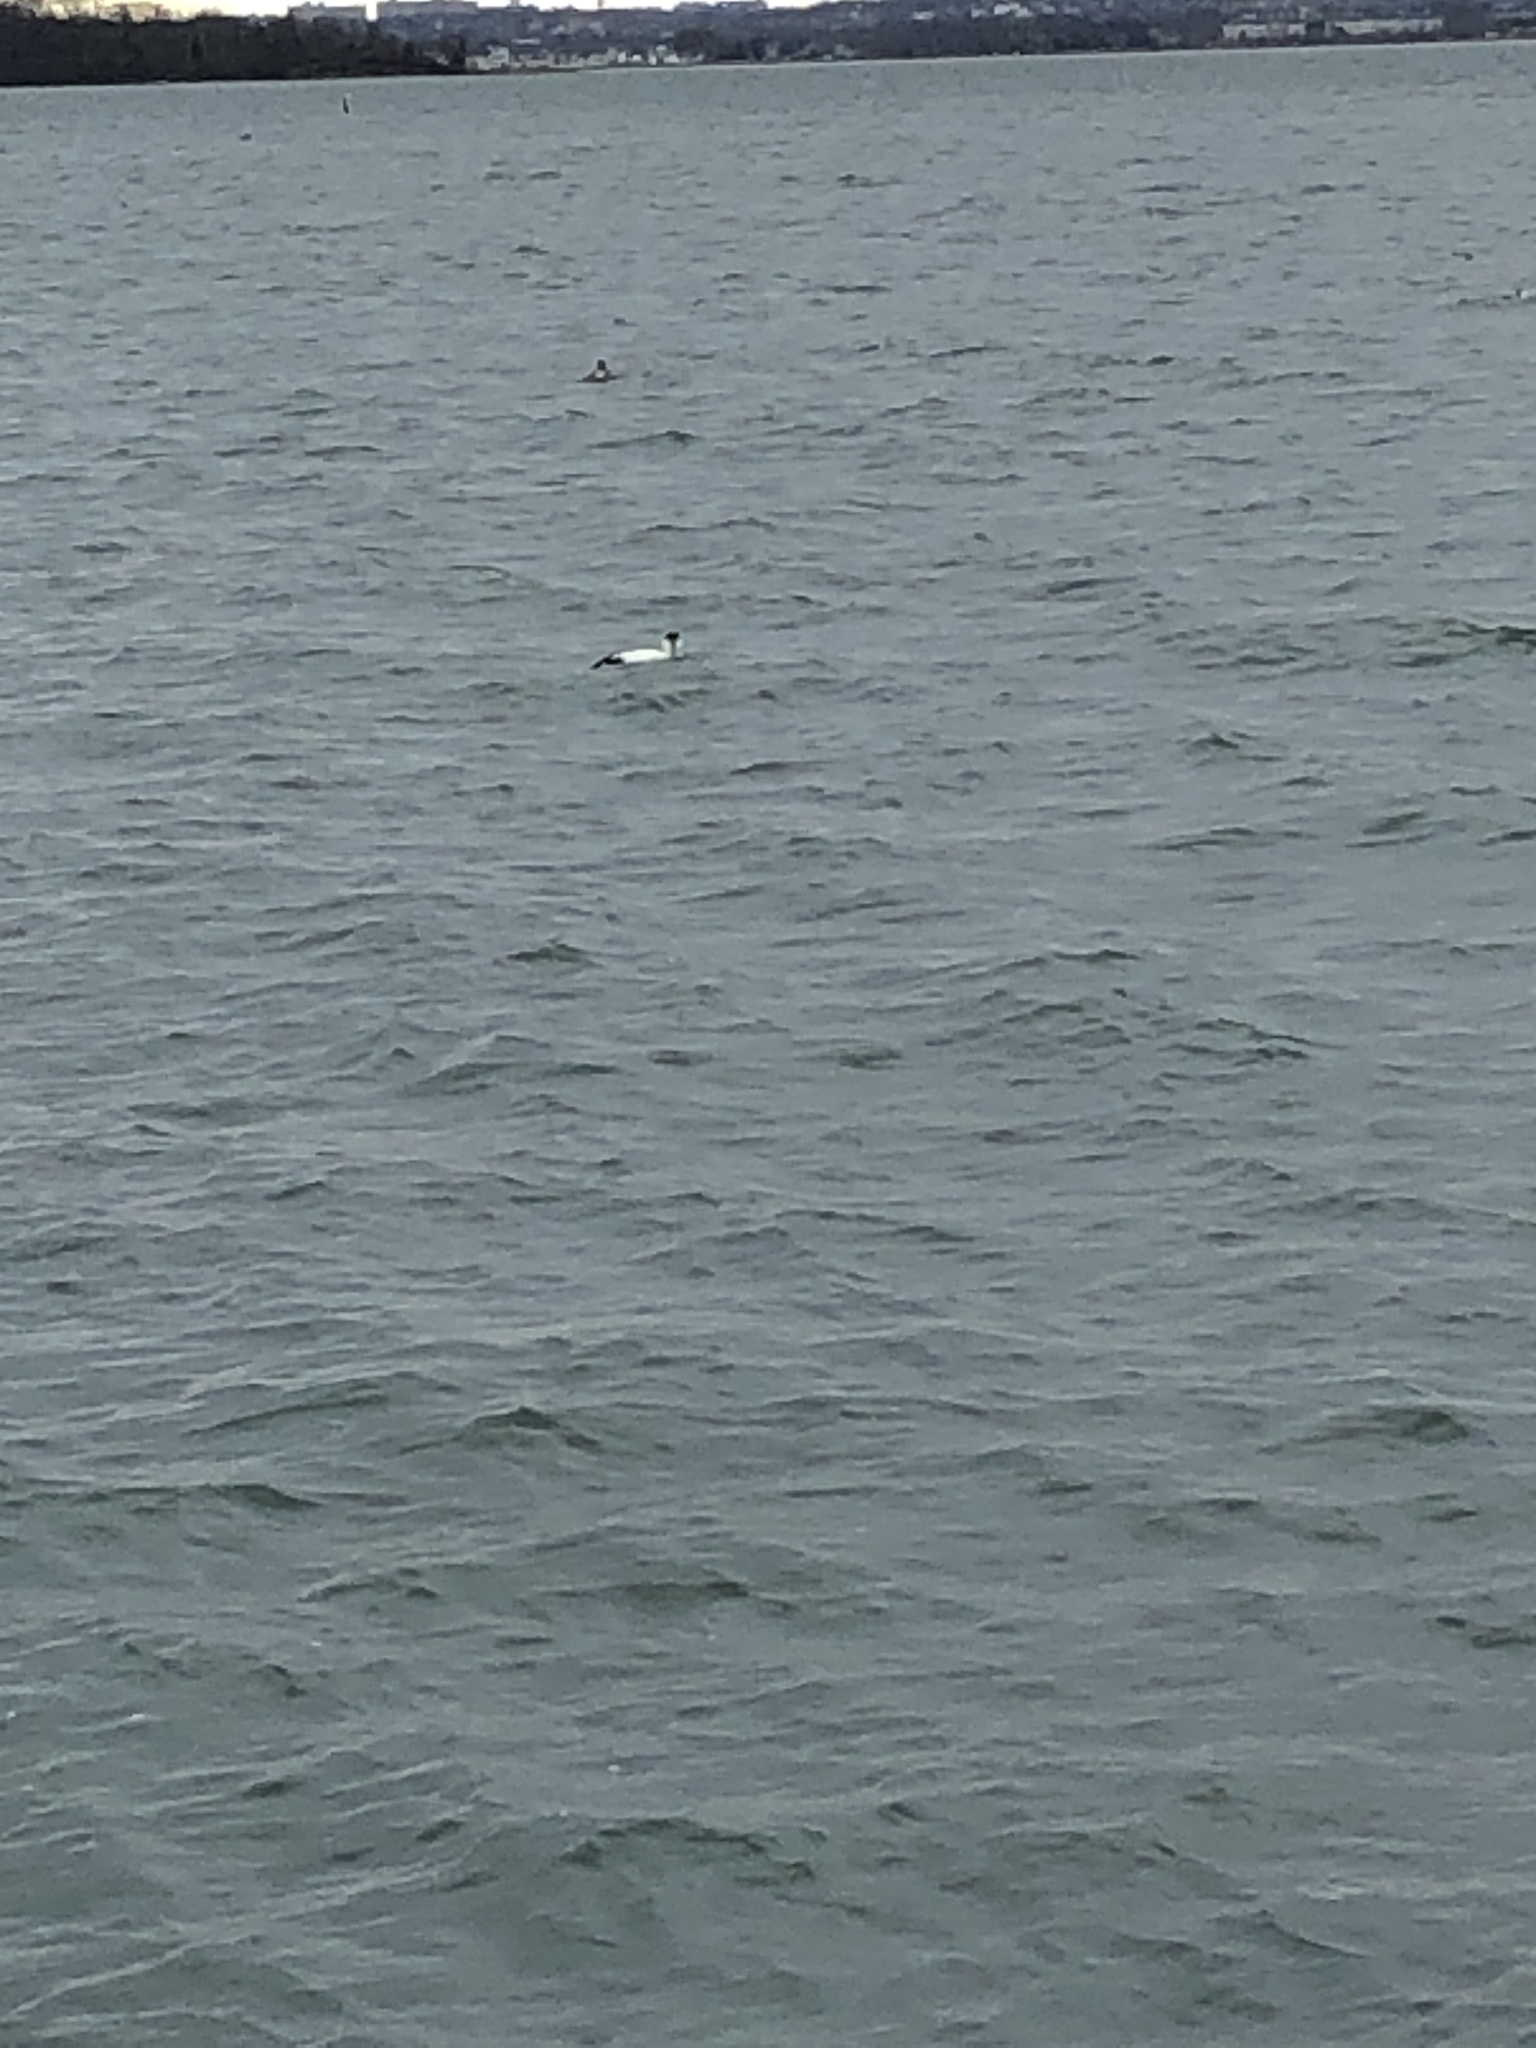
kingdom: Animalia
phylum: Chordata
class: Aves
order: Anseriformes
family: Anatidae
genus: Somateria
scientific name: Somateria mollissima
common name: Common eider
